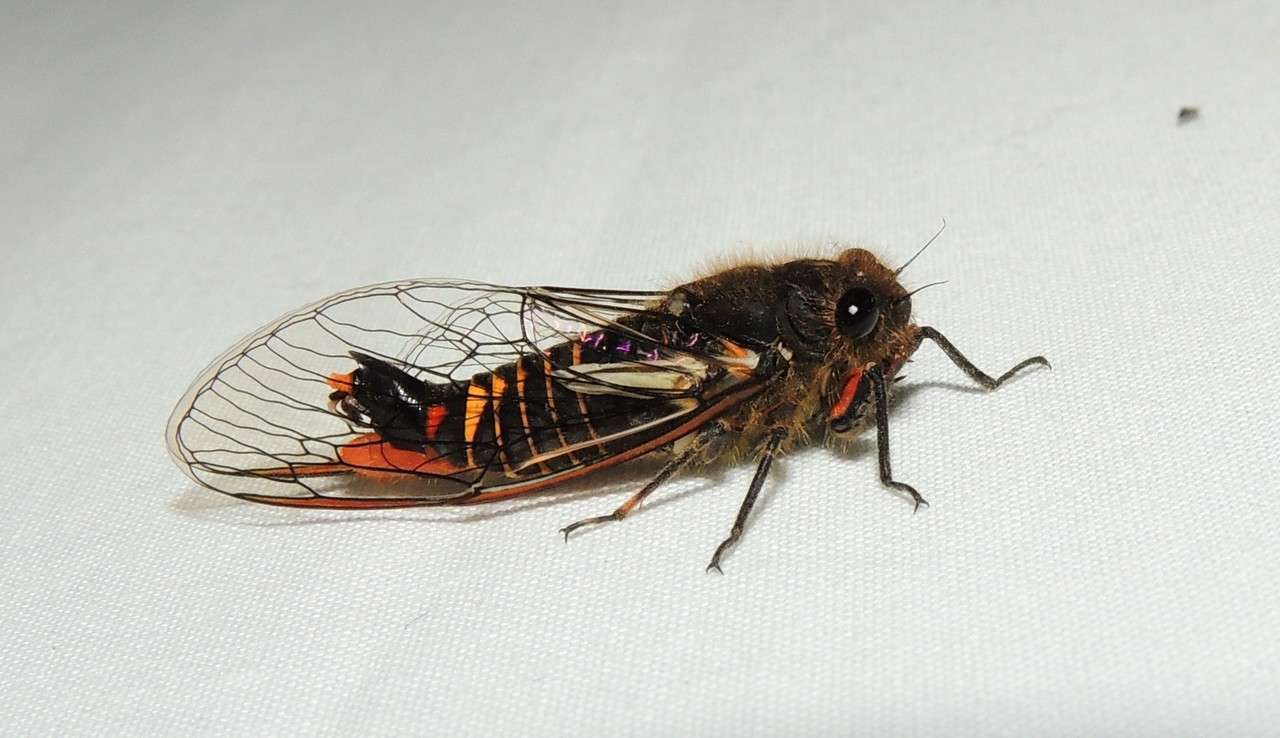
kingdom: Animalia
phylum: Arthropoda
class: Insecta
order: Hemiptera
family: Cicadidae
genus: Yoyetta
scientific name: Yoyetta abdominalis
